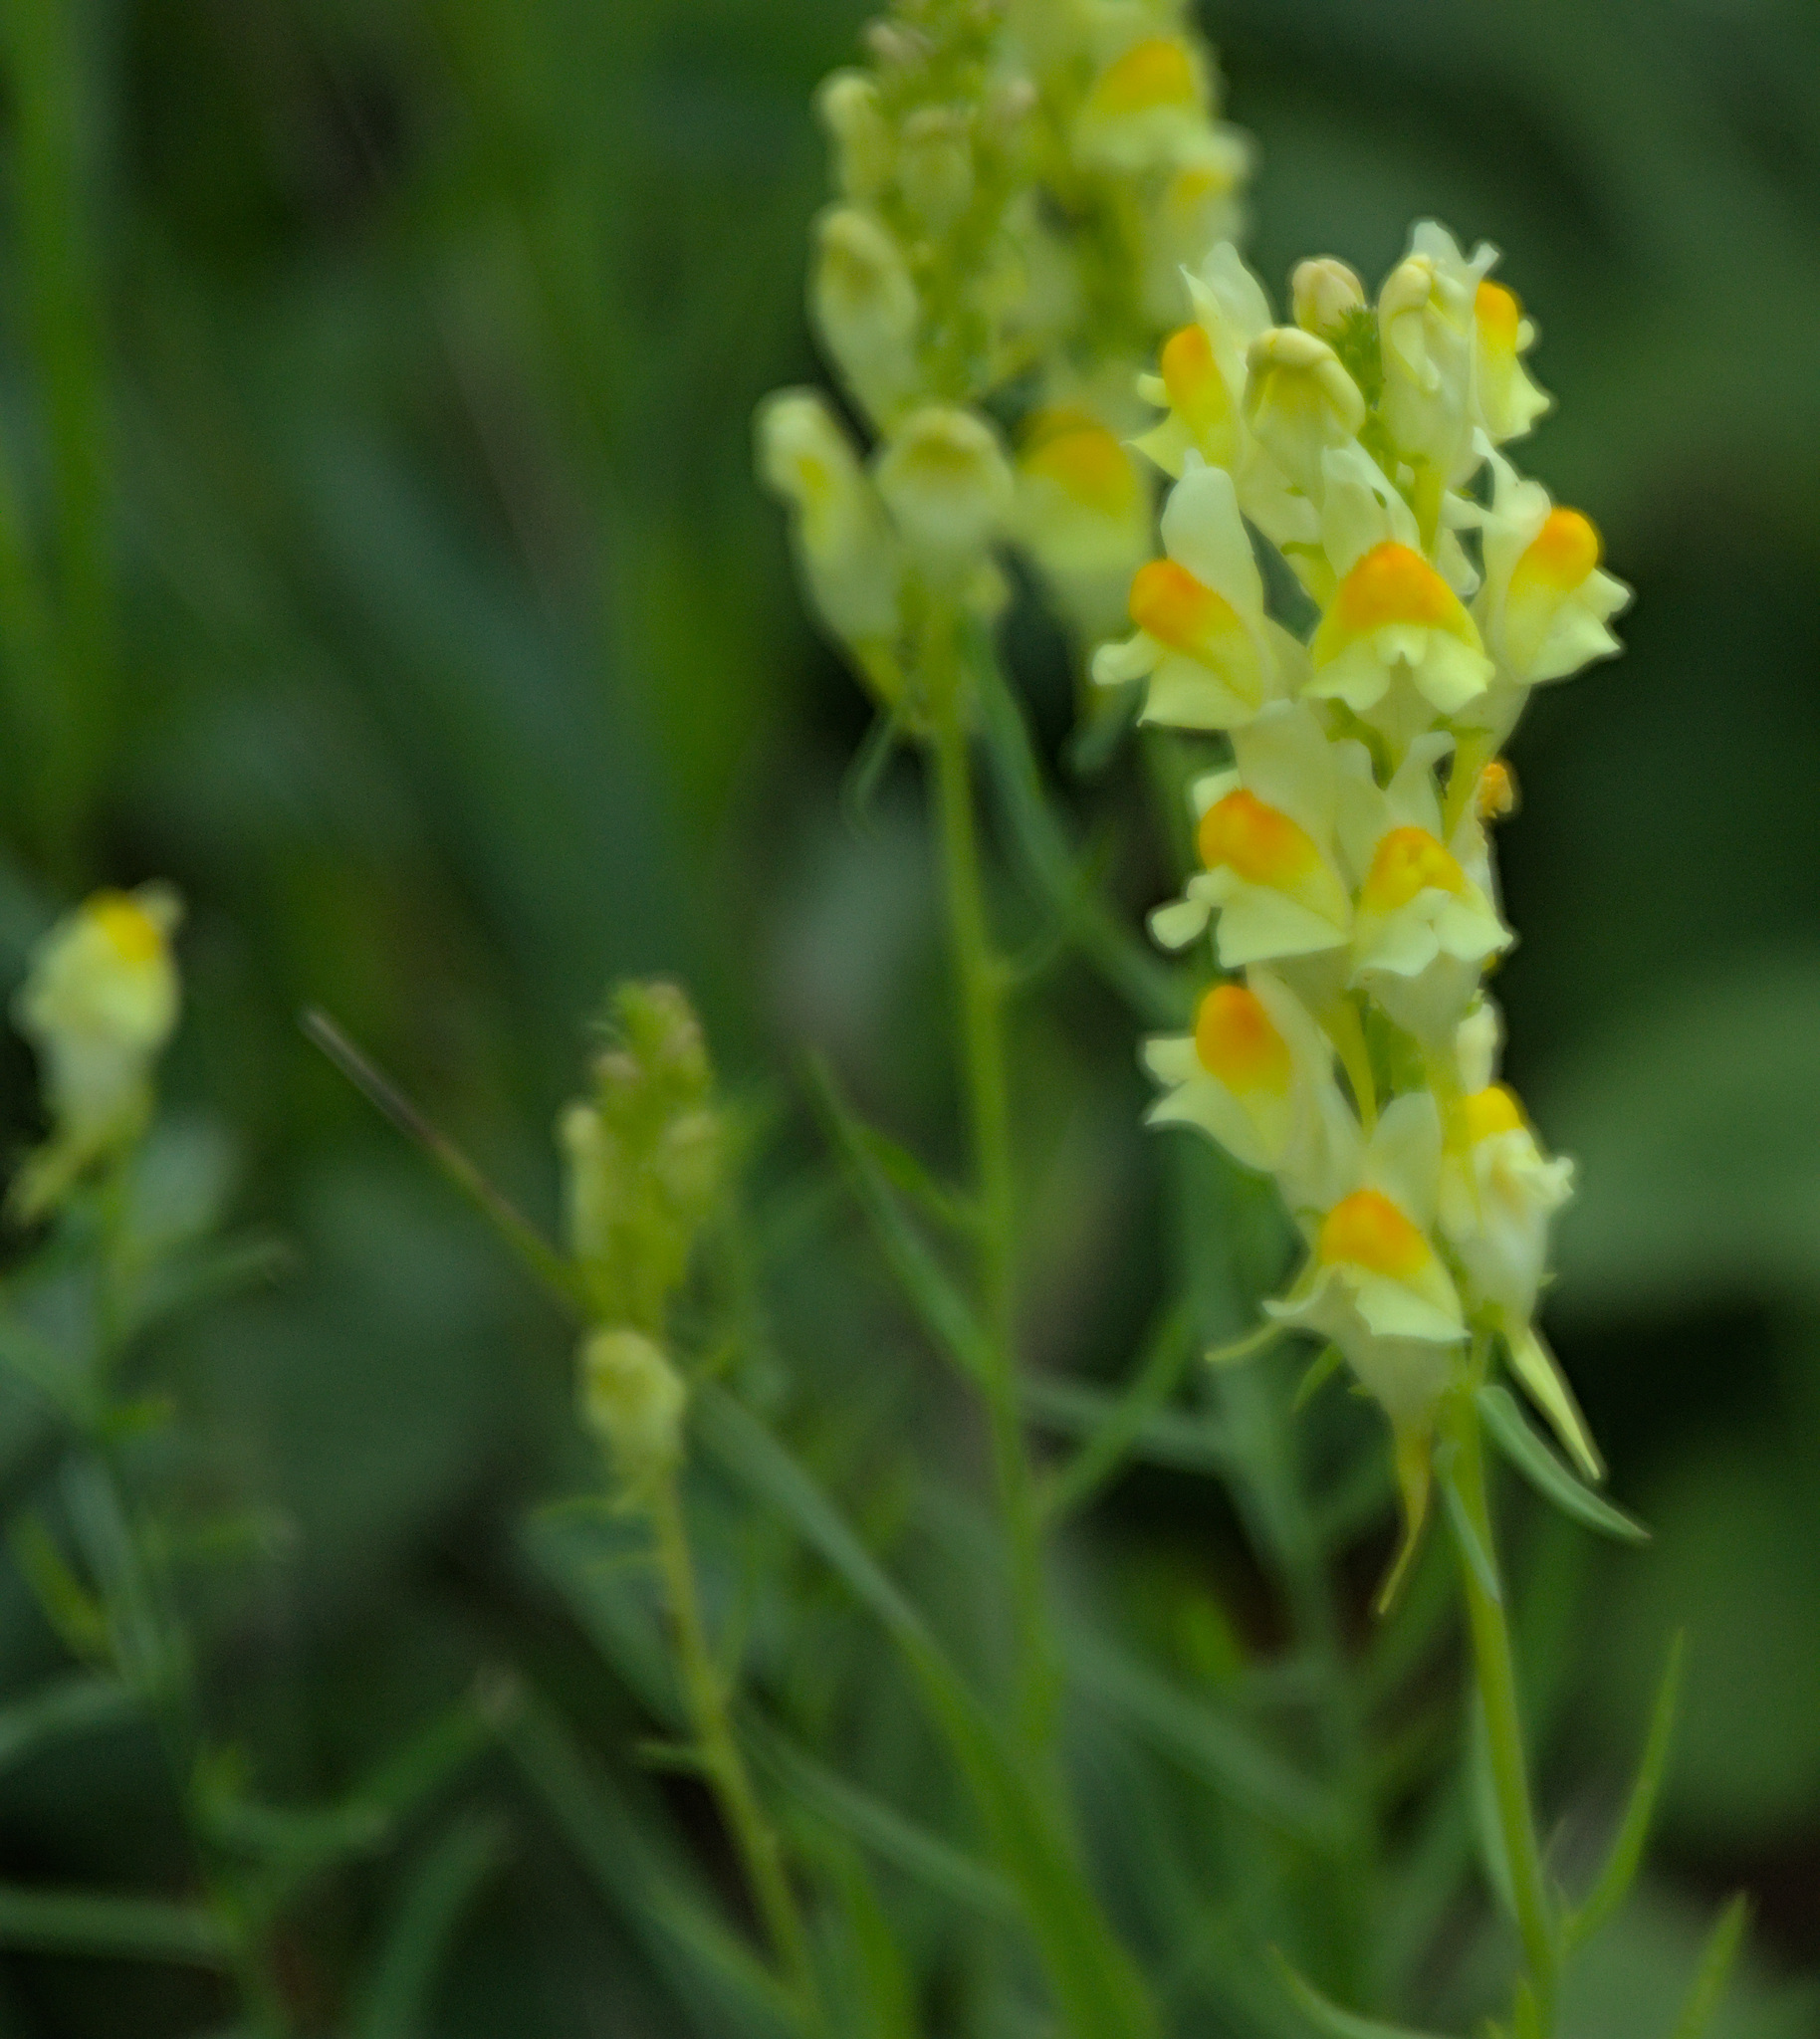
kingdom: Plantae
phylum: Tracheophyta
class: Magnoliopsida
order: Lamiales
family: Plantaginaceae
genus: Linaria
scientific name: Linaria vulgaris
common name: Butter and eggs
